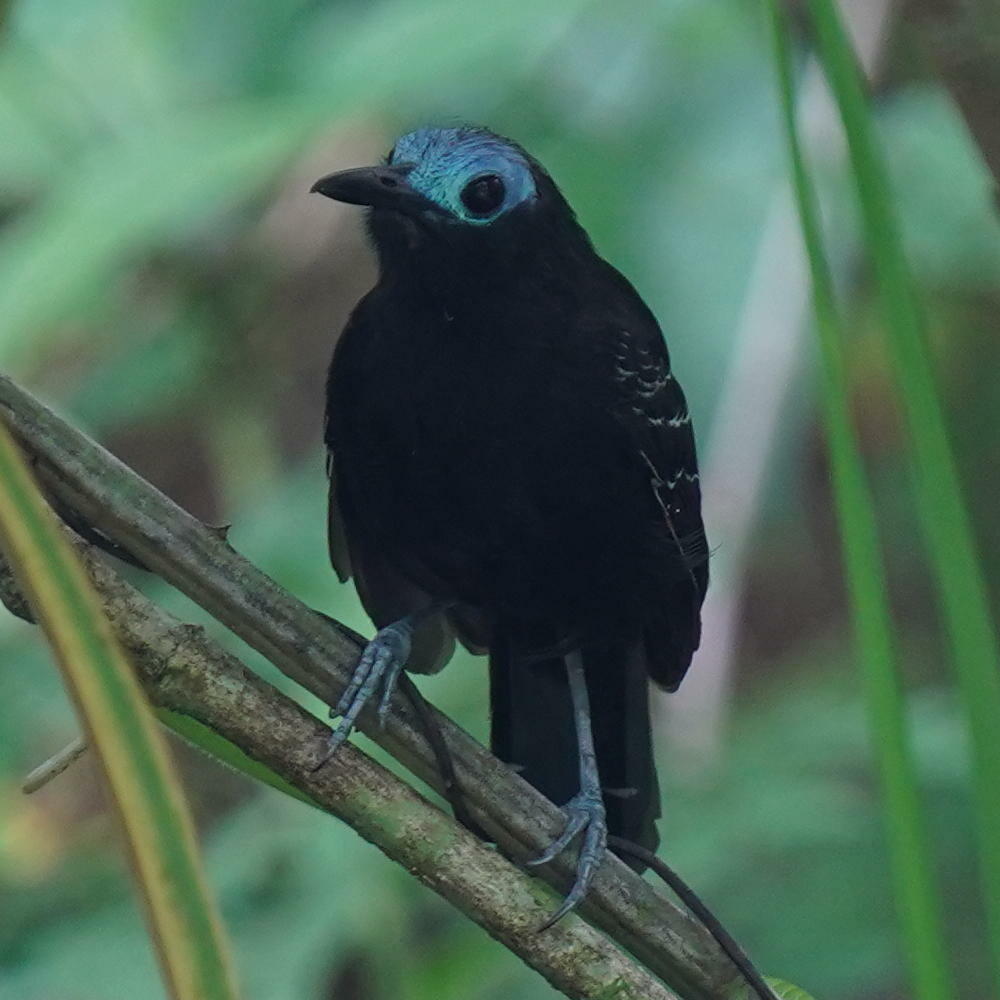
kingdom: Animalia
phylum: Chordata
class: Aves
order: Passeriformes
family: Thamnophilidae
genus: Gymnocichla
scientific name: Gymnocichla nudiceps
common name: Bare-crowned antbird
